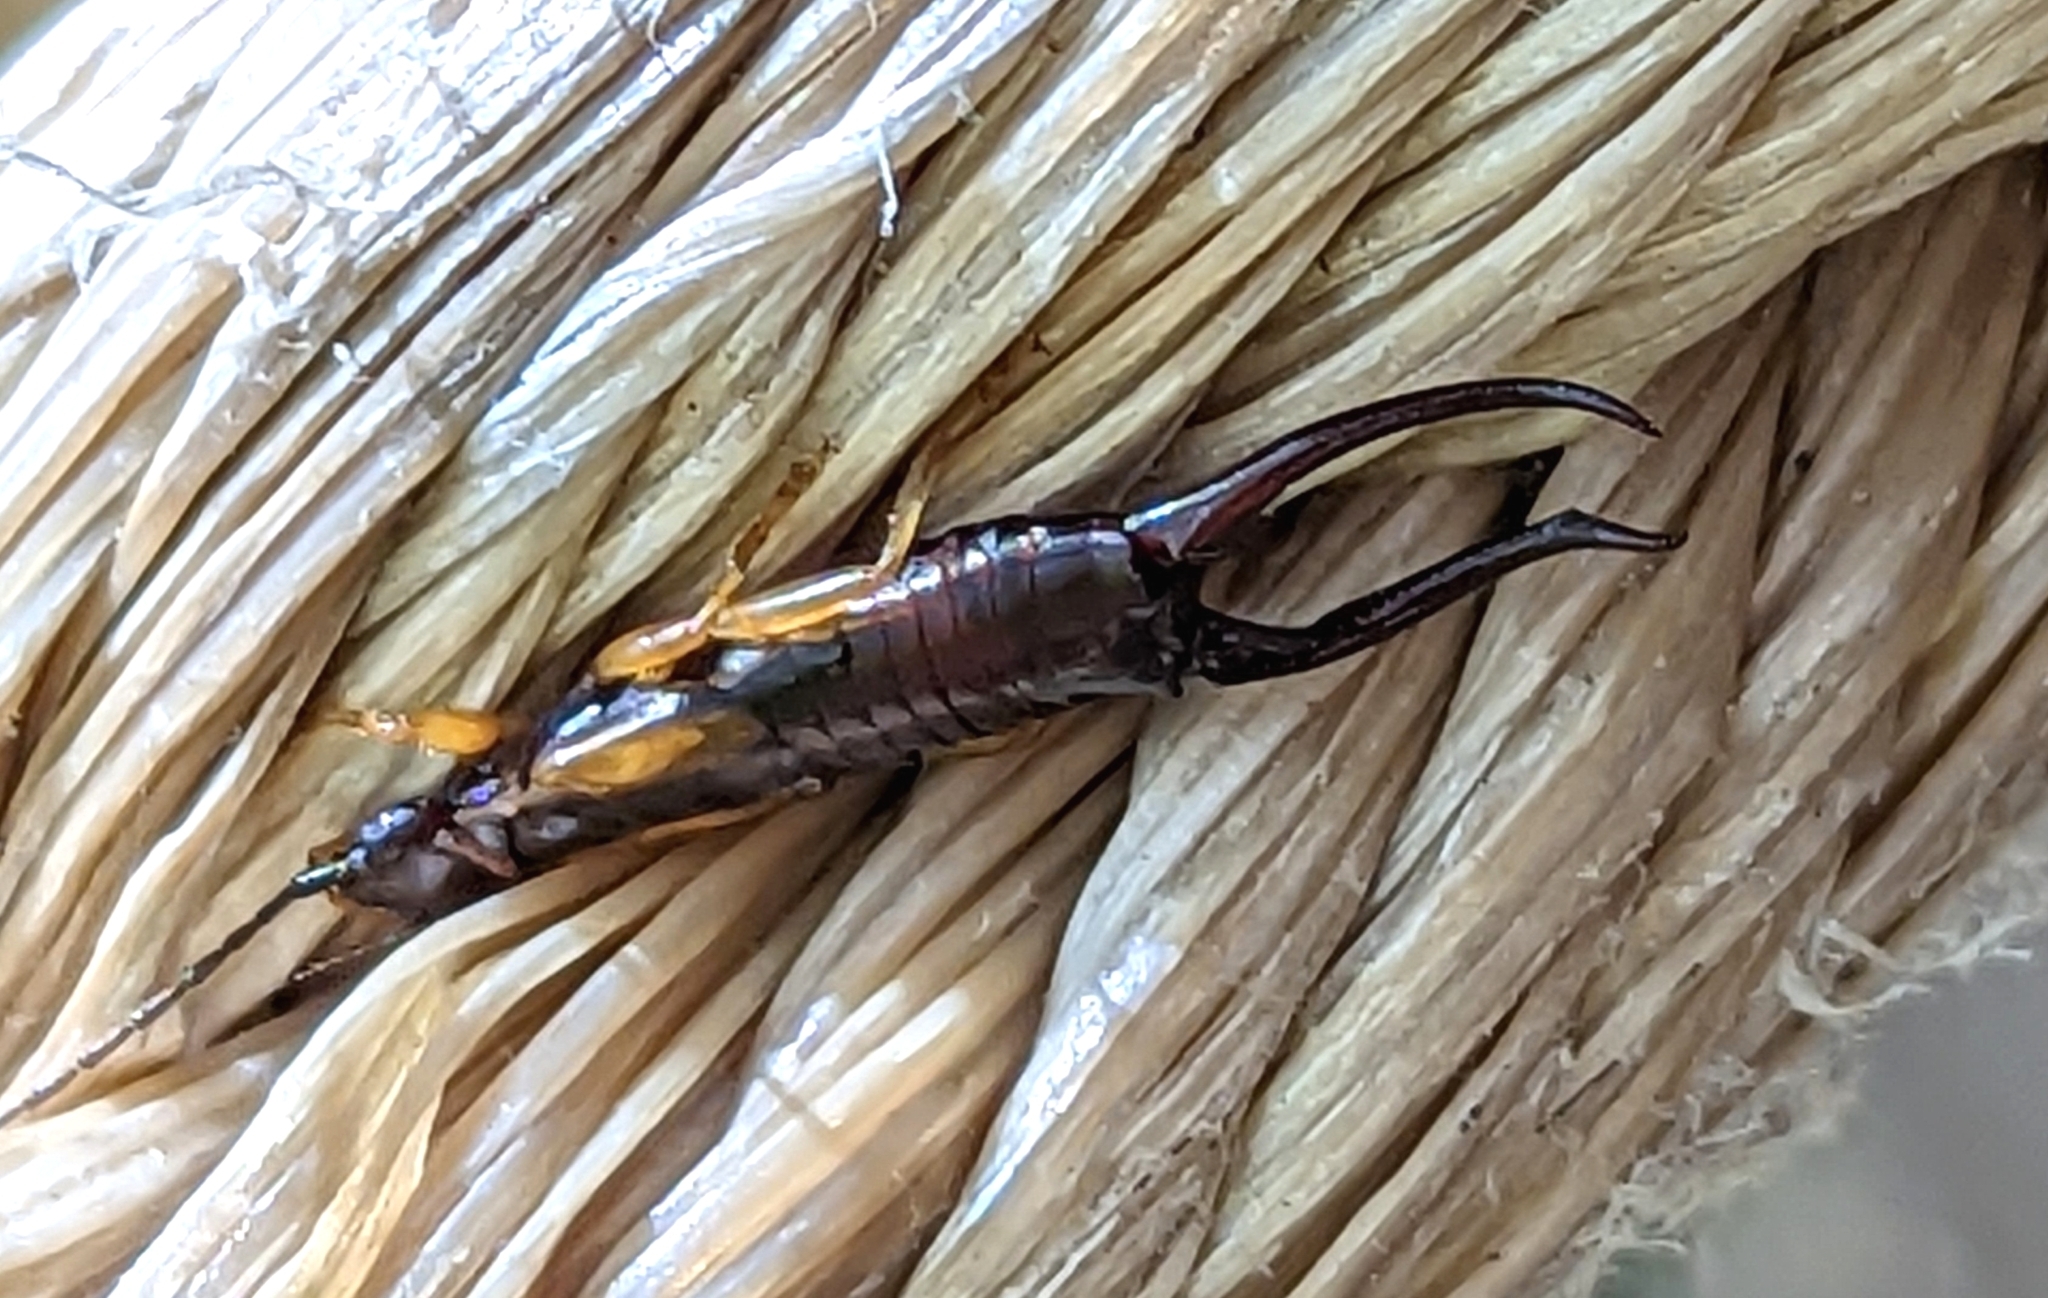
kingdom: Animalia
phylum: Arthropoda
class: Insecta
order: Dermaptera
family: Forficulidae
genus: Forficula
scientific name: Forficula
